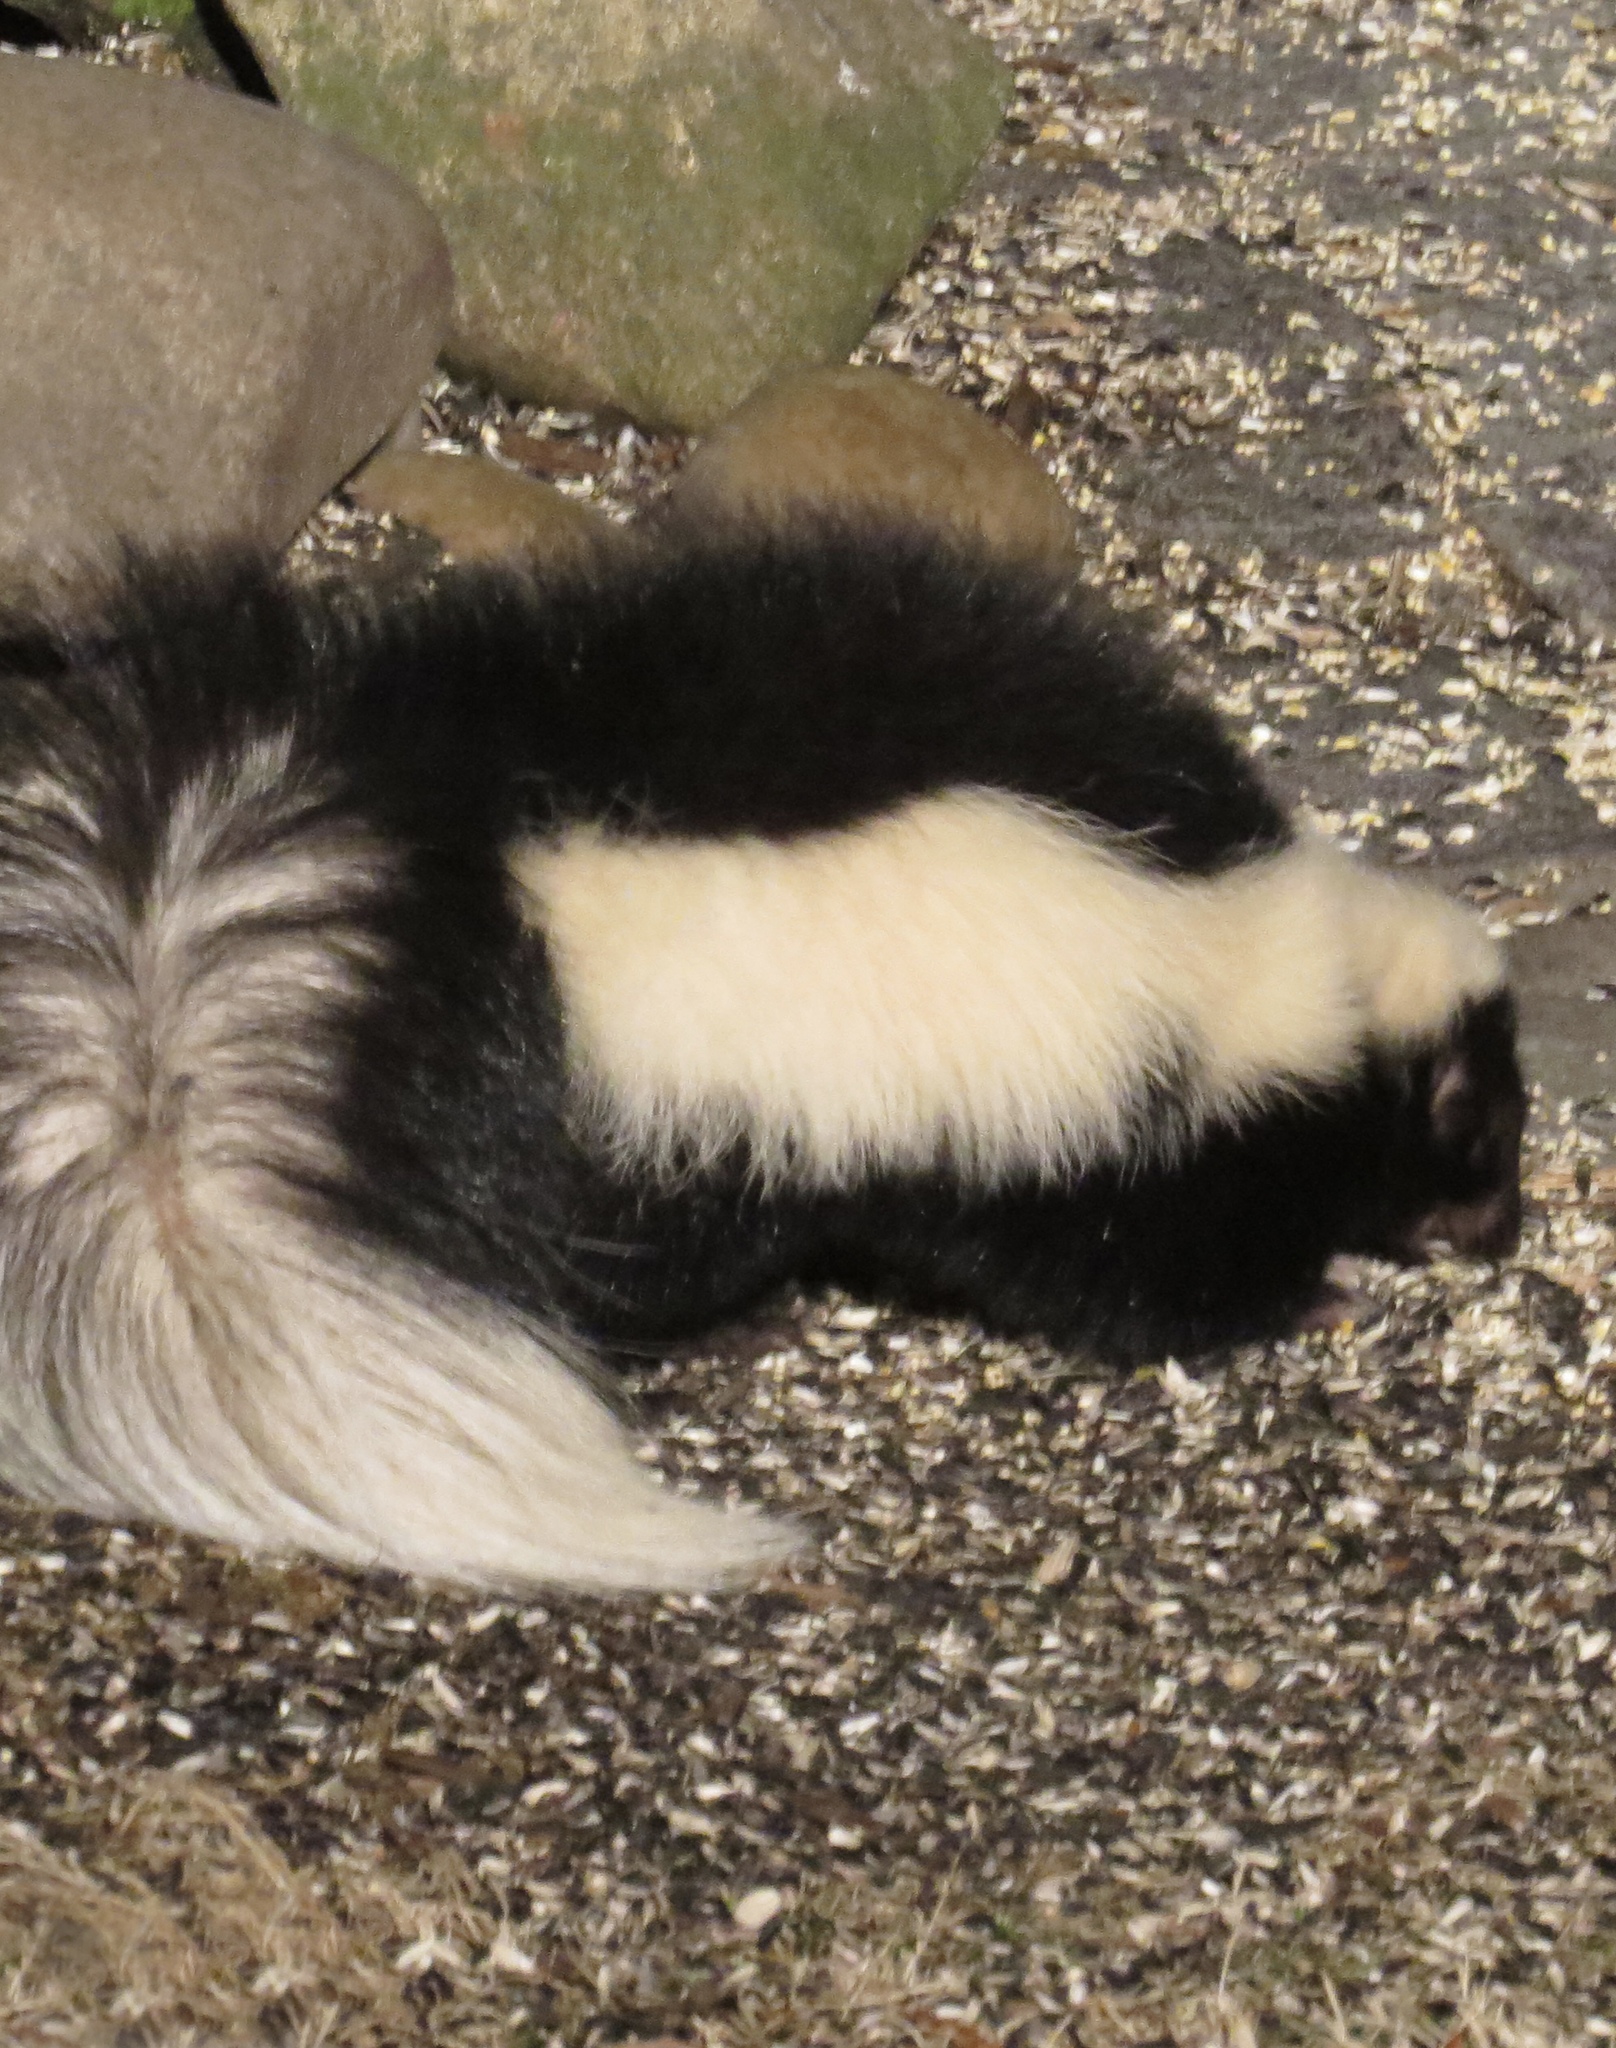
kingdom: Animalia
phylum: Chordata
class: Mammalia
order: Carnivora
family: Mephitidae
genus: Mephitis
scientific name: Mephitis mephitis
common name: Striped skunk
